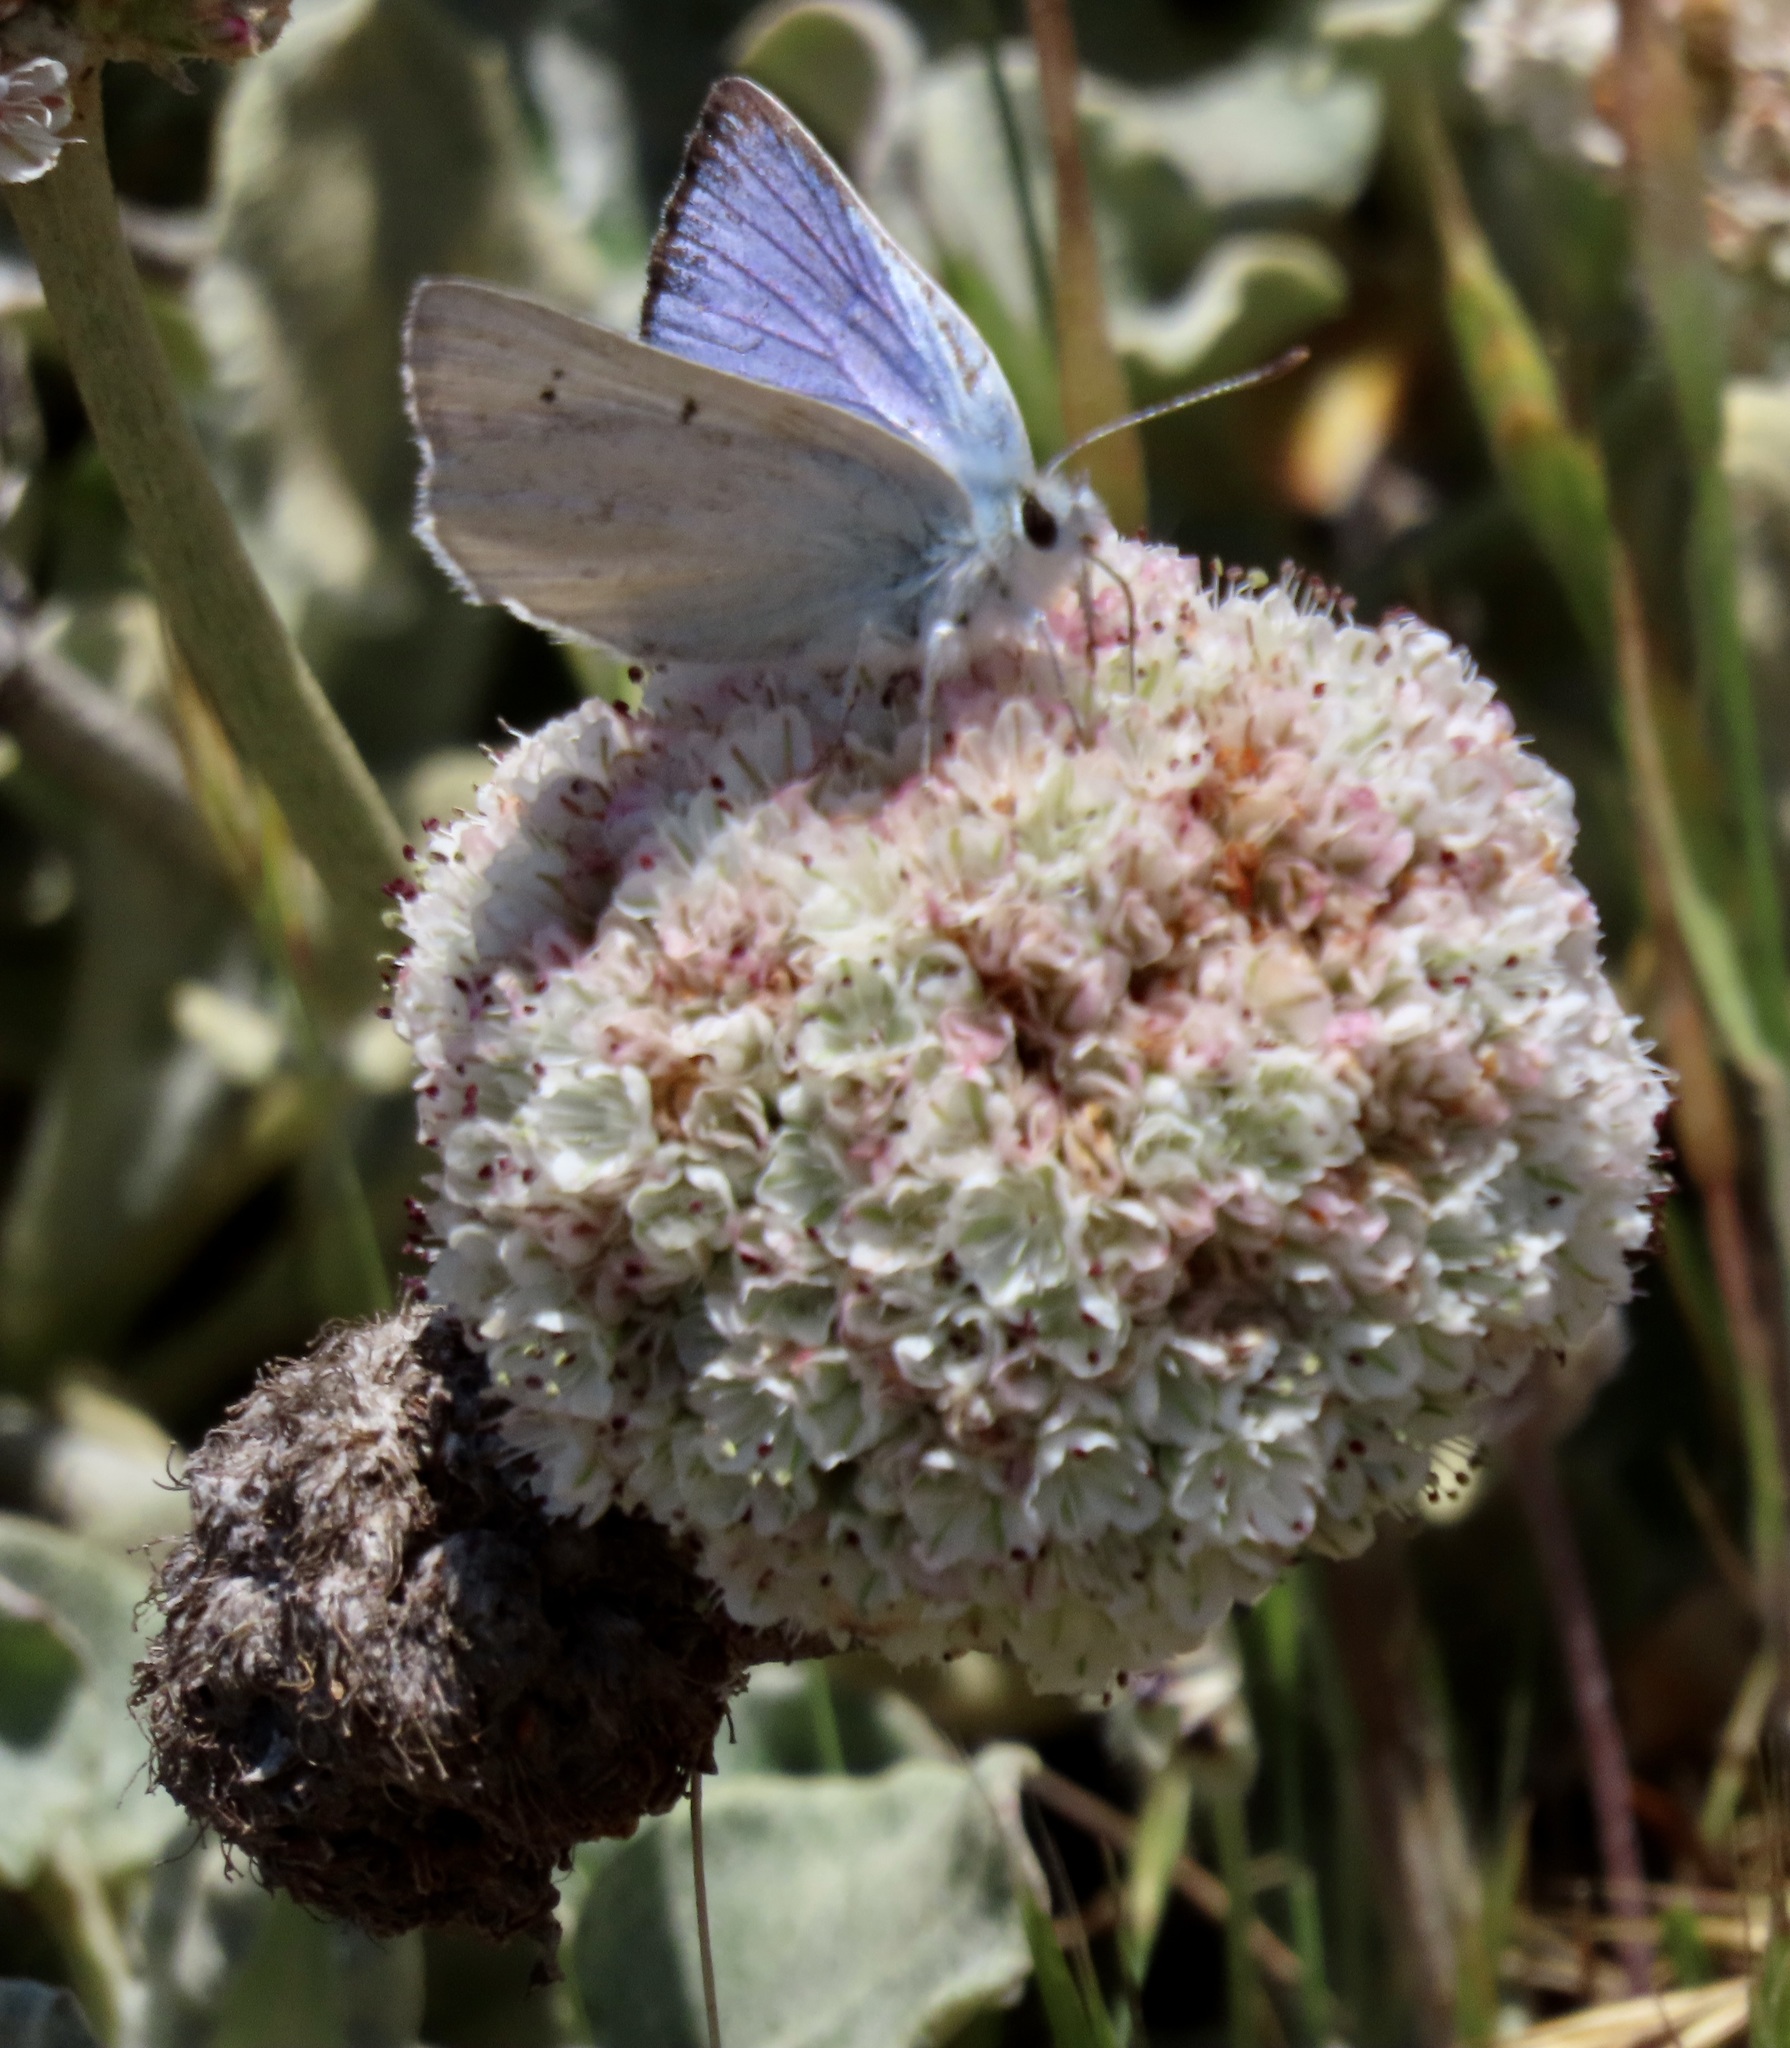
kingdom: Animalia
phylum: Arthropoda
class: Insecta
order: Lepidoptera
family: Lycaenidae
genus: Tharsalea
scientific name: Tharsalea heteronea
